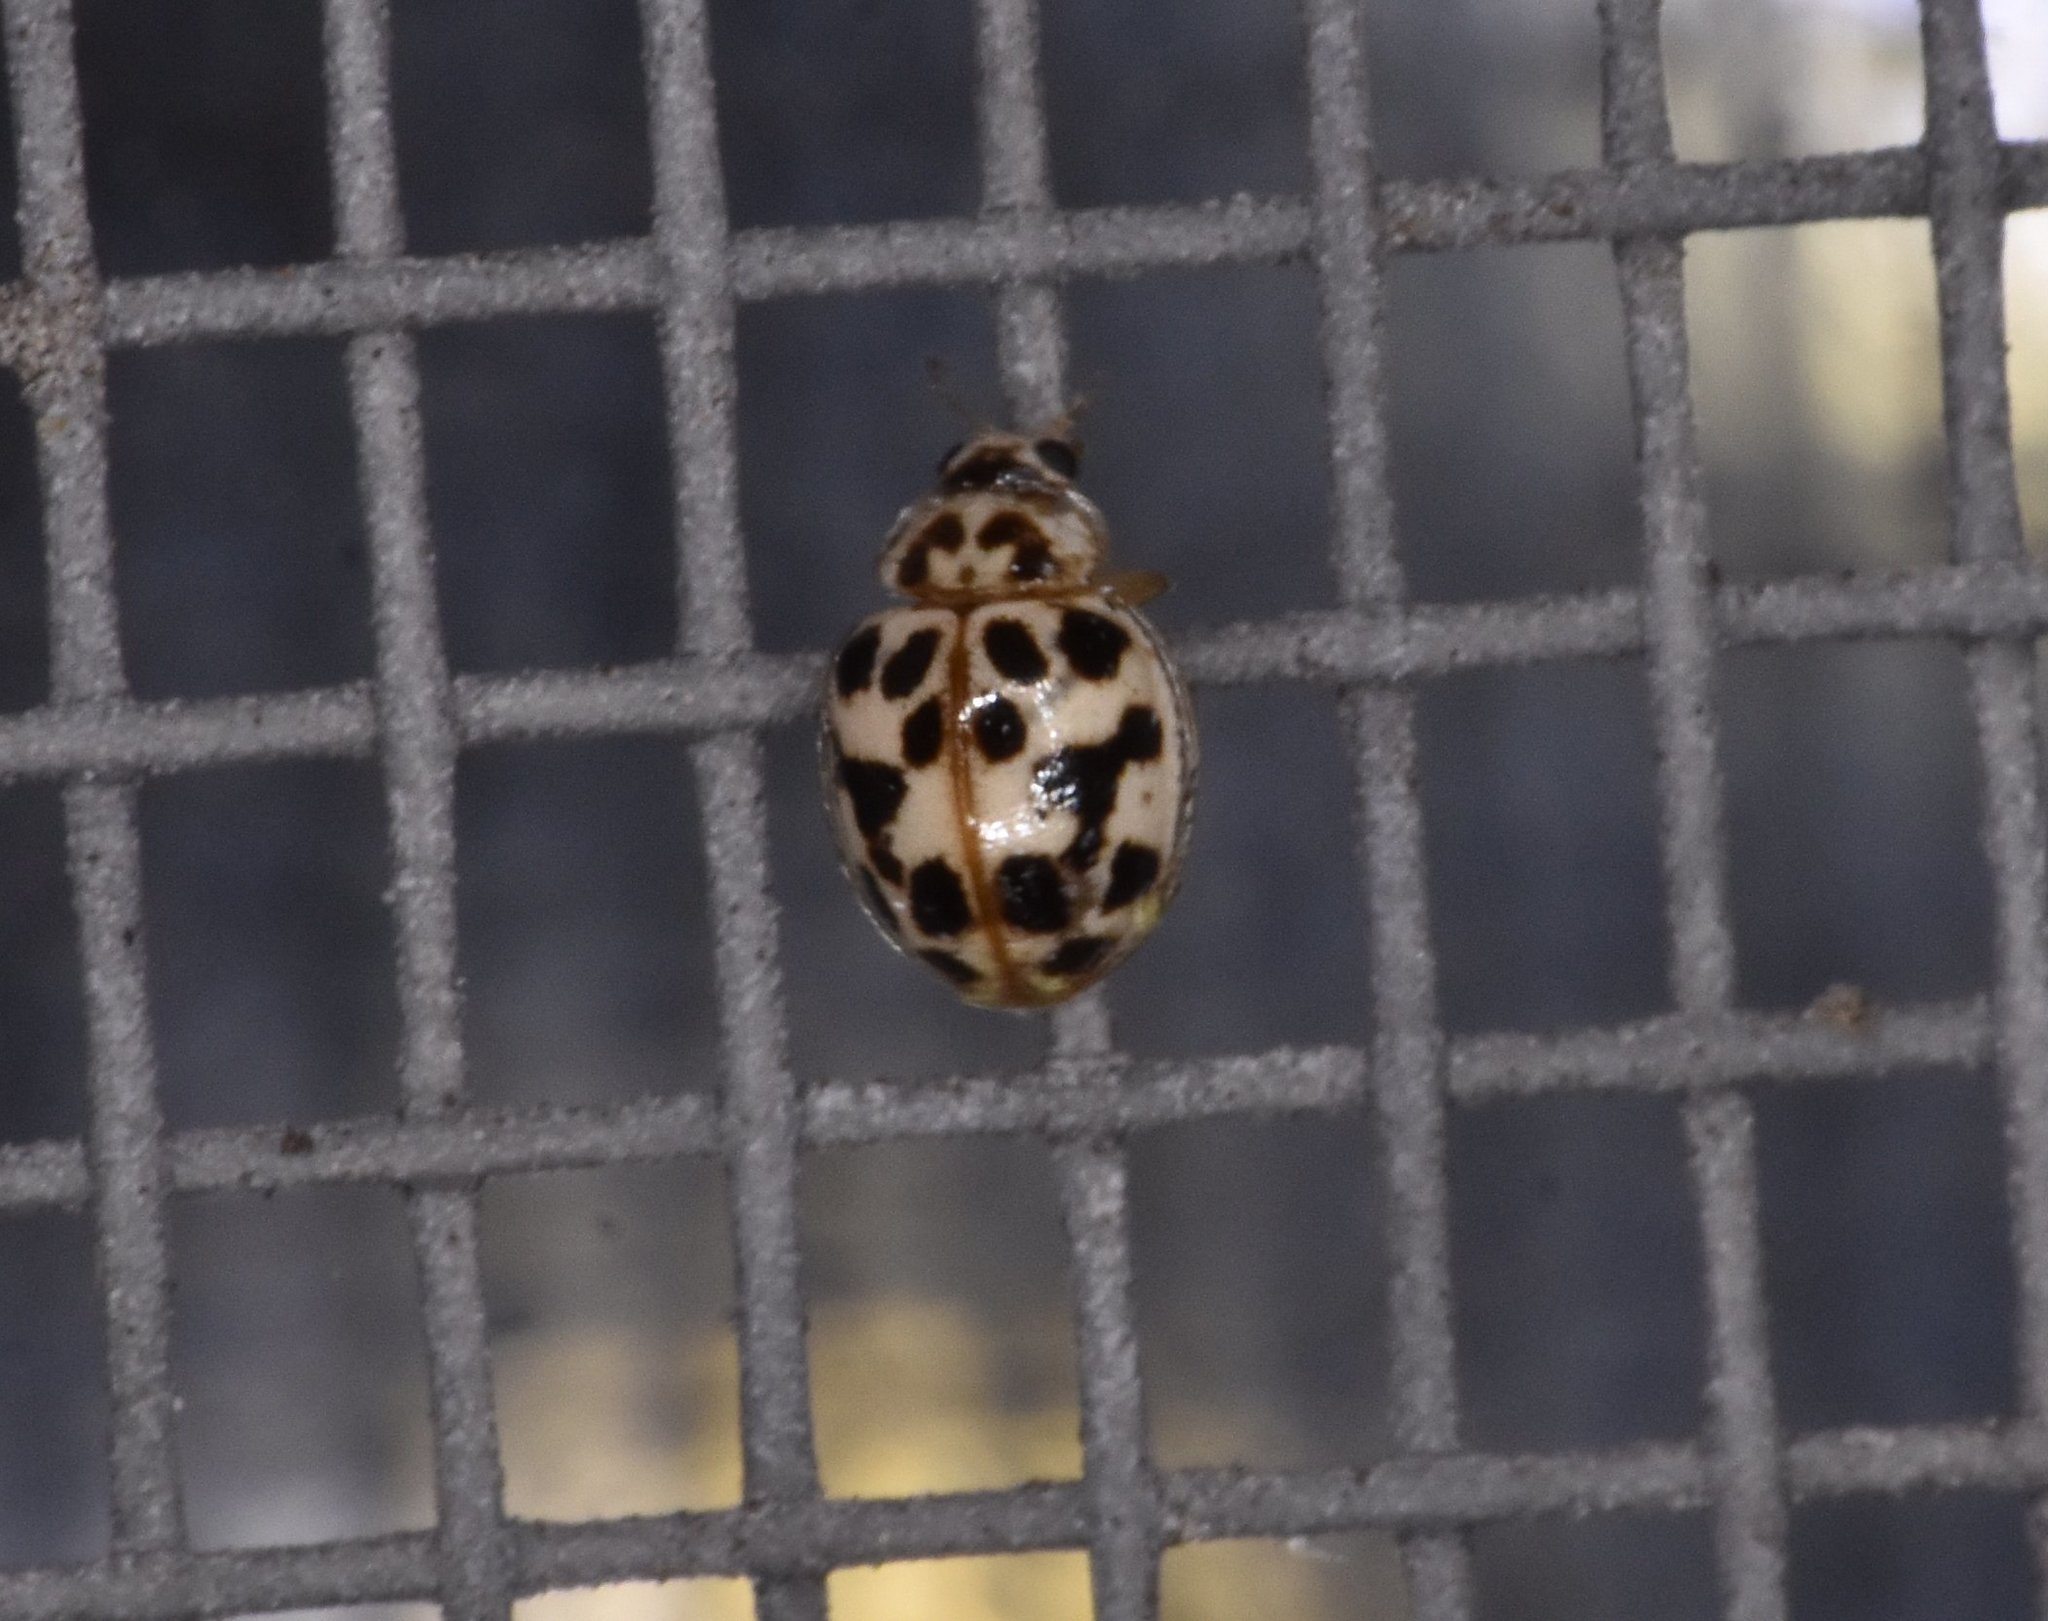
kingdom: Animalia
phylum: Arthropoda
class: Insecta
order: Coleoptera
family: Coccinellidae
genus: Psyllobora
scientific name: Psyllobora parvinotata
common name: Small-spotted psyllobora
